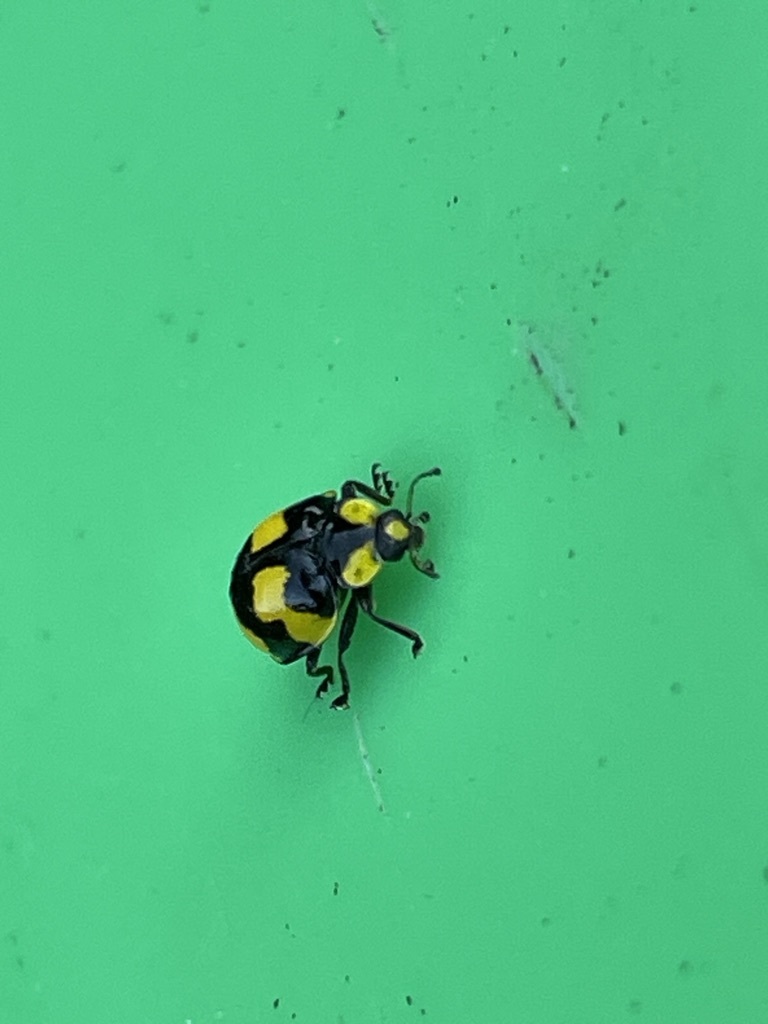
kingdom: Animalia
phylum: Arthropoda
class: Insecta
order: Coleoptera
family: Coccinellidae
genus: Illeis
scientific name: Illeis galbula
